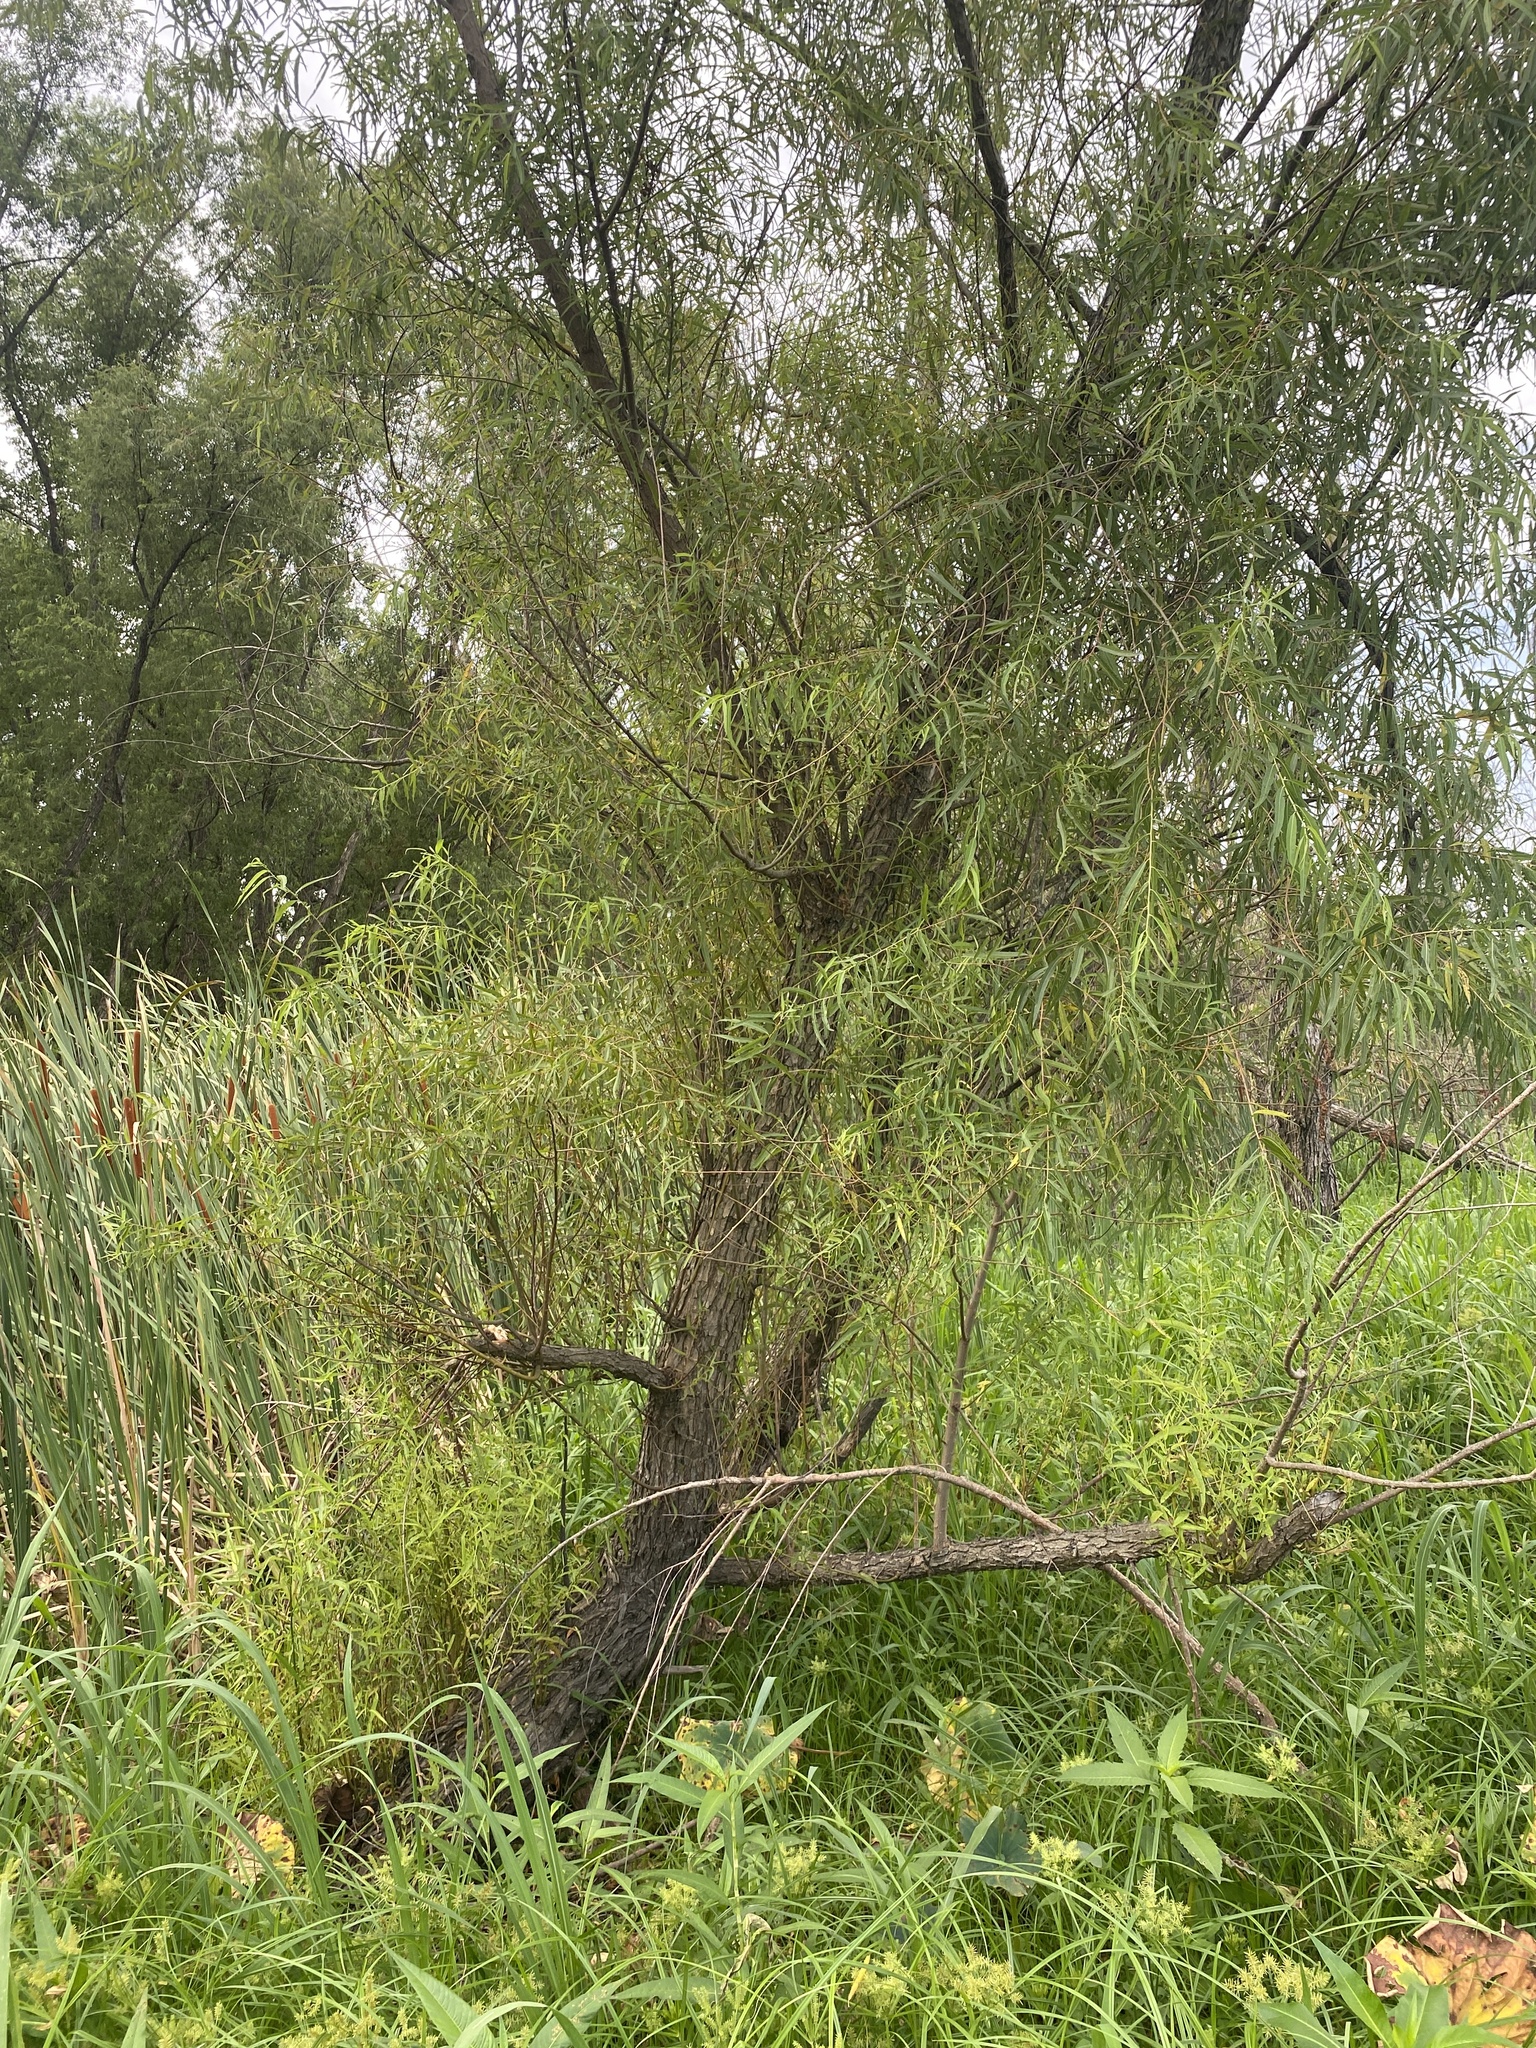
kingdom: Plantae
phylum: Tracheophyta
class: Magnoliopsida
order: Malpighiales
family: Salicaceae
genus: Salix
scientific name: Salix nigra
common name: Black willow
